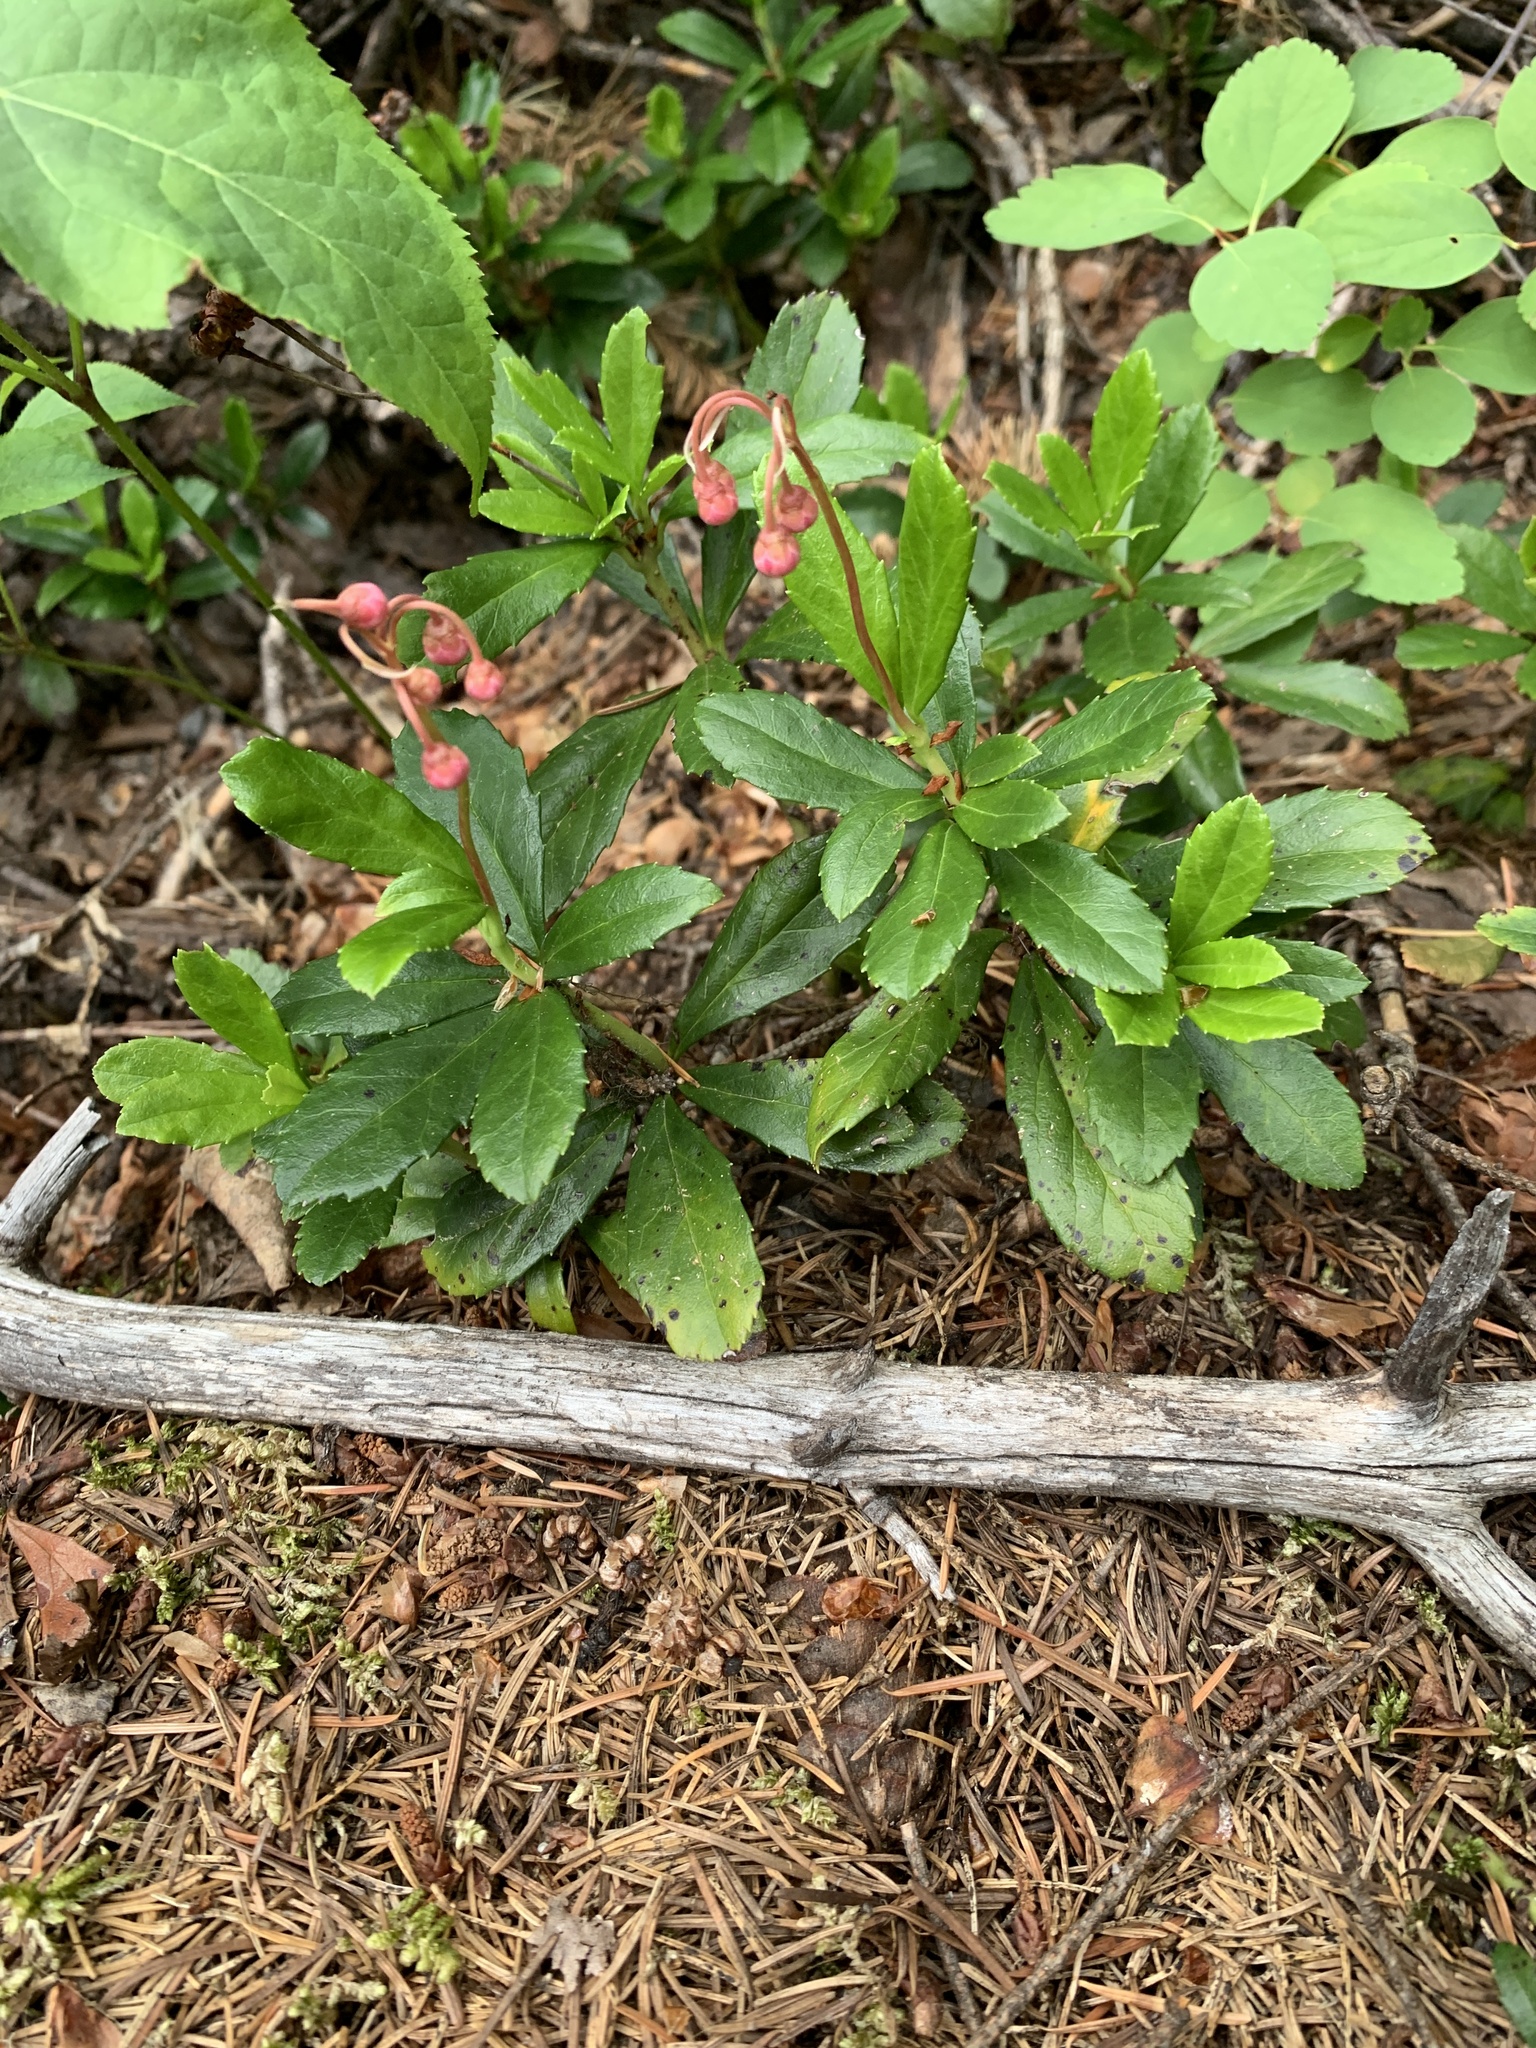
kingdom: Plantae
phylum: Tracheophyta
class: Magnoliopsida
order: Ericales
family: Ericaceae
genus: Chimaphila
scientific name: Chimaphila umbellata
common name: Pipsissewa
